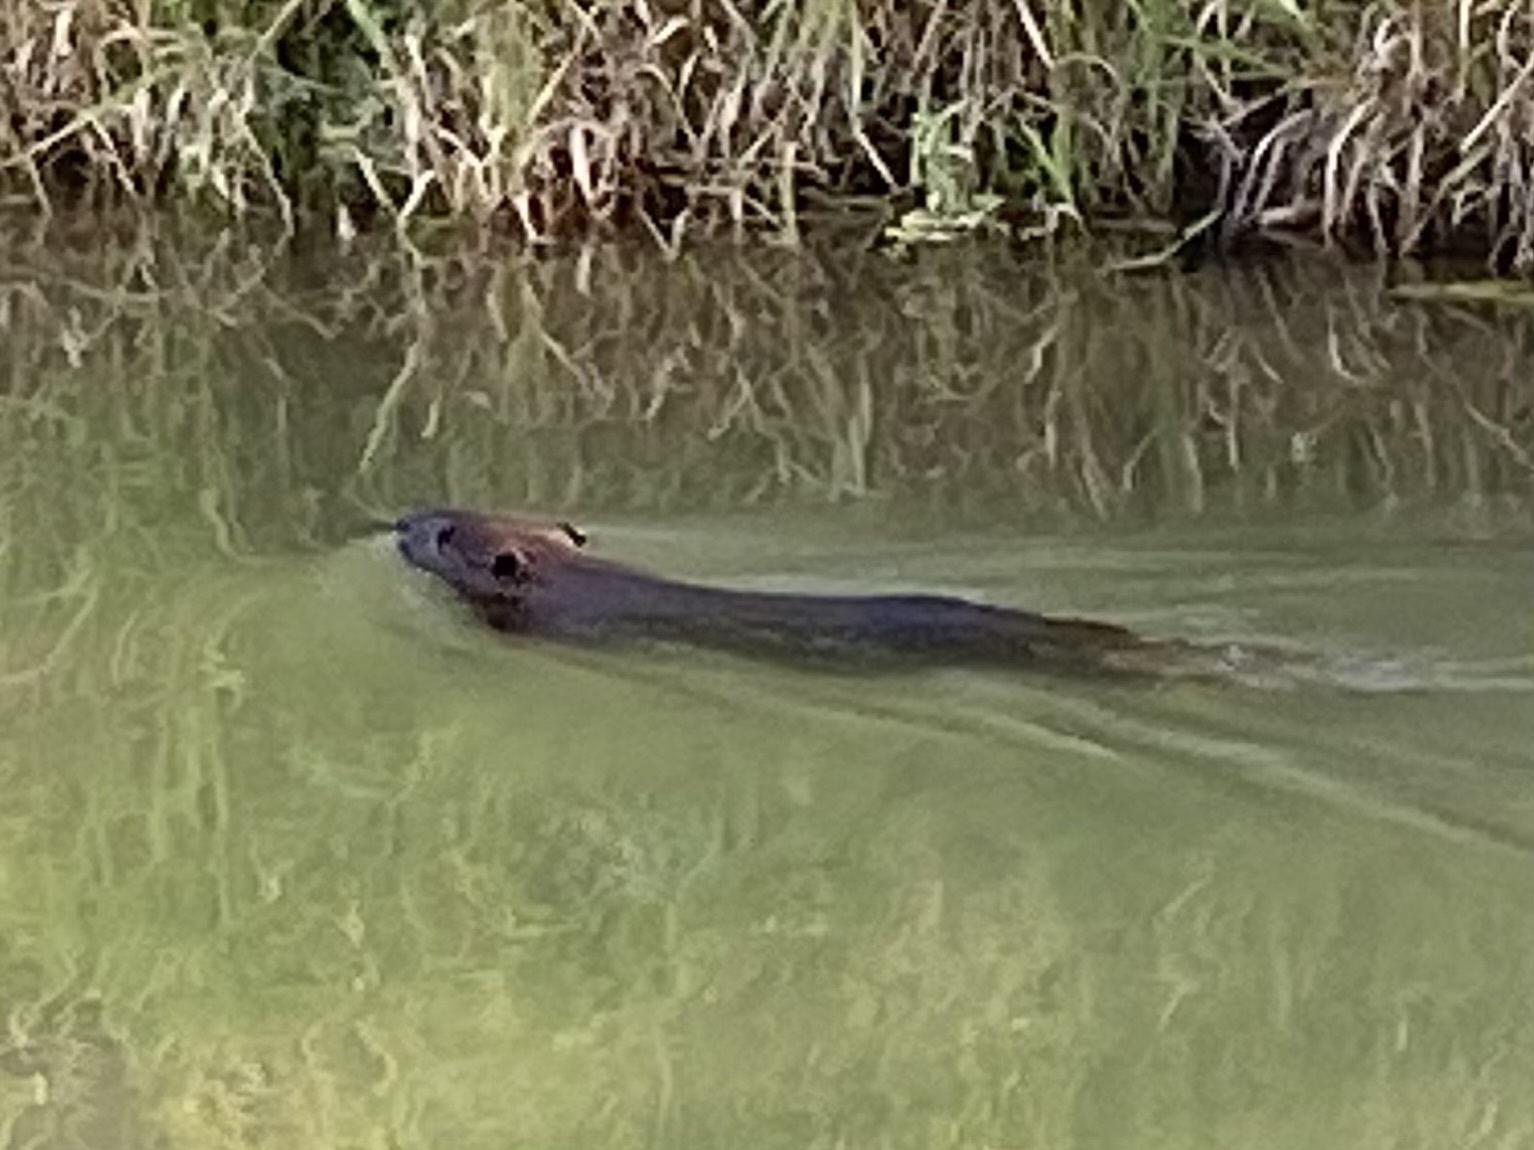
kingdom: Animalia
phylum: Chordata
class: Mammalia
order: Rodentia
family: Castoridae
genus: Castor
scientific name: Castor canadensis
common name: American beaver
